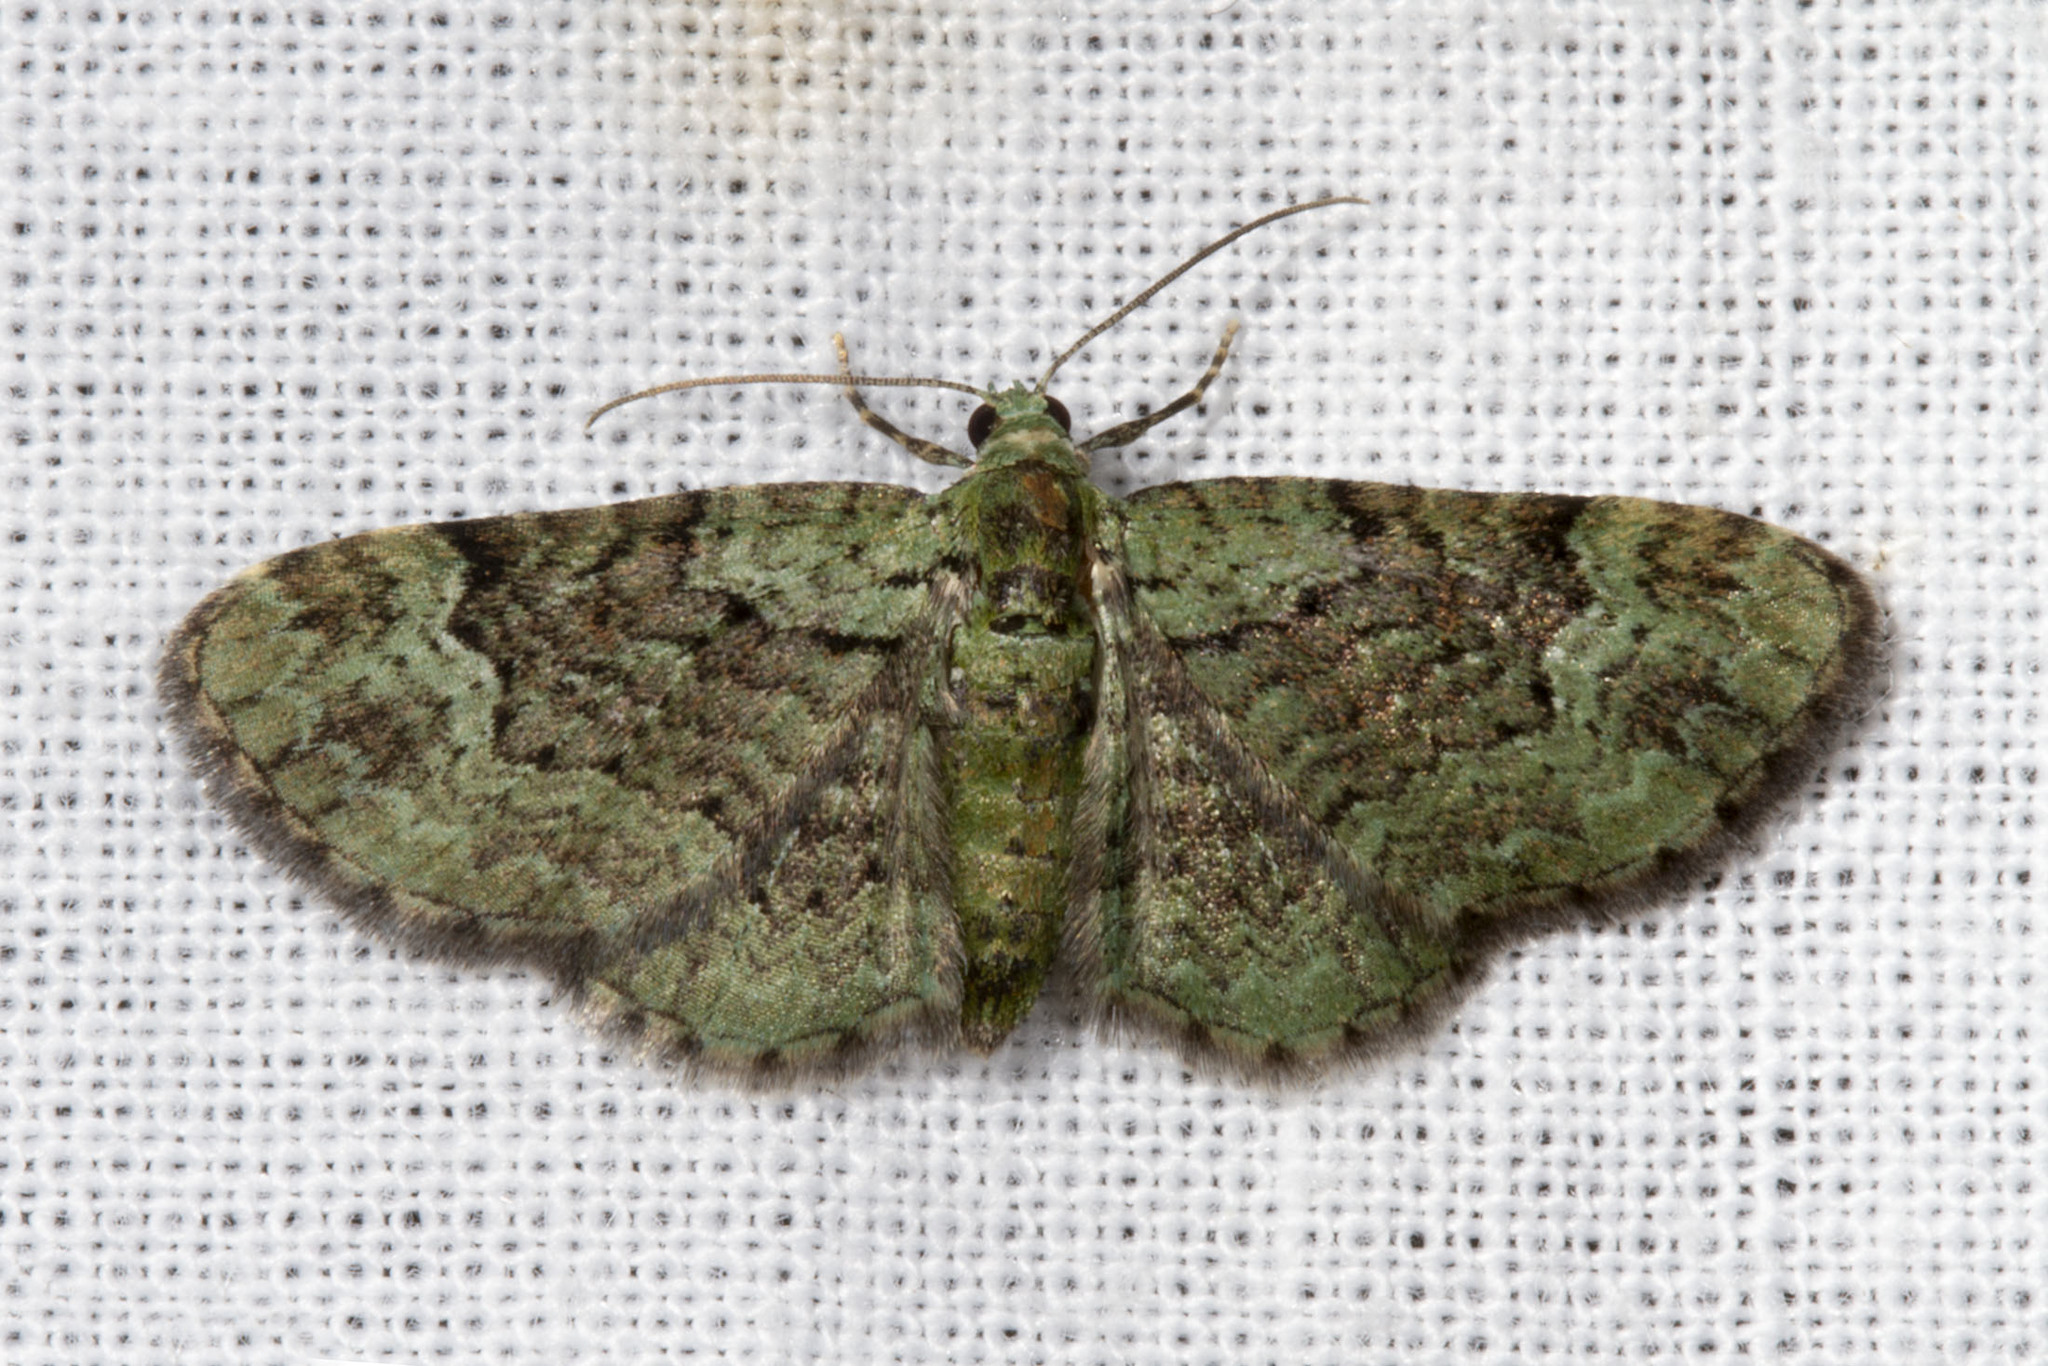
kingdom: Animalia
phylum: Arthropoda
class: Insecta
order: Lepidoptera
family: Geometridae
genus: Pasiphila
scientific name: Pasiphila rectangulata
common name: Green pug
